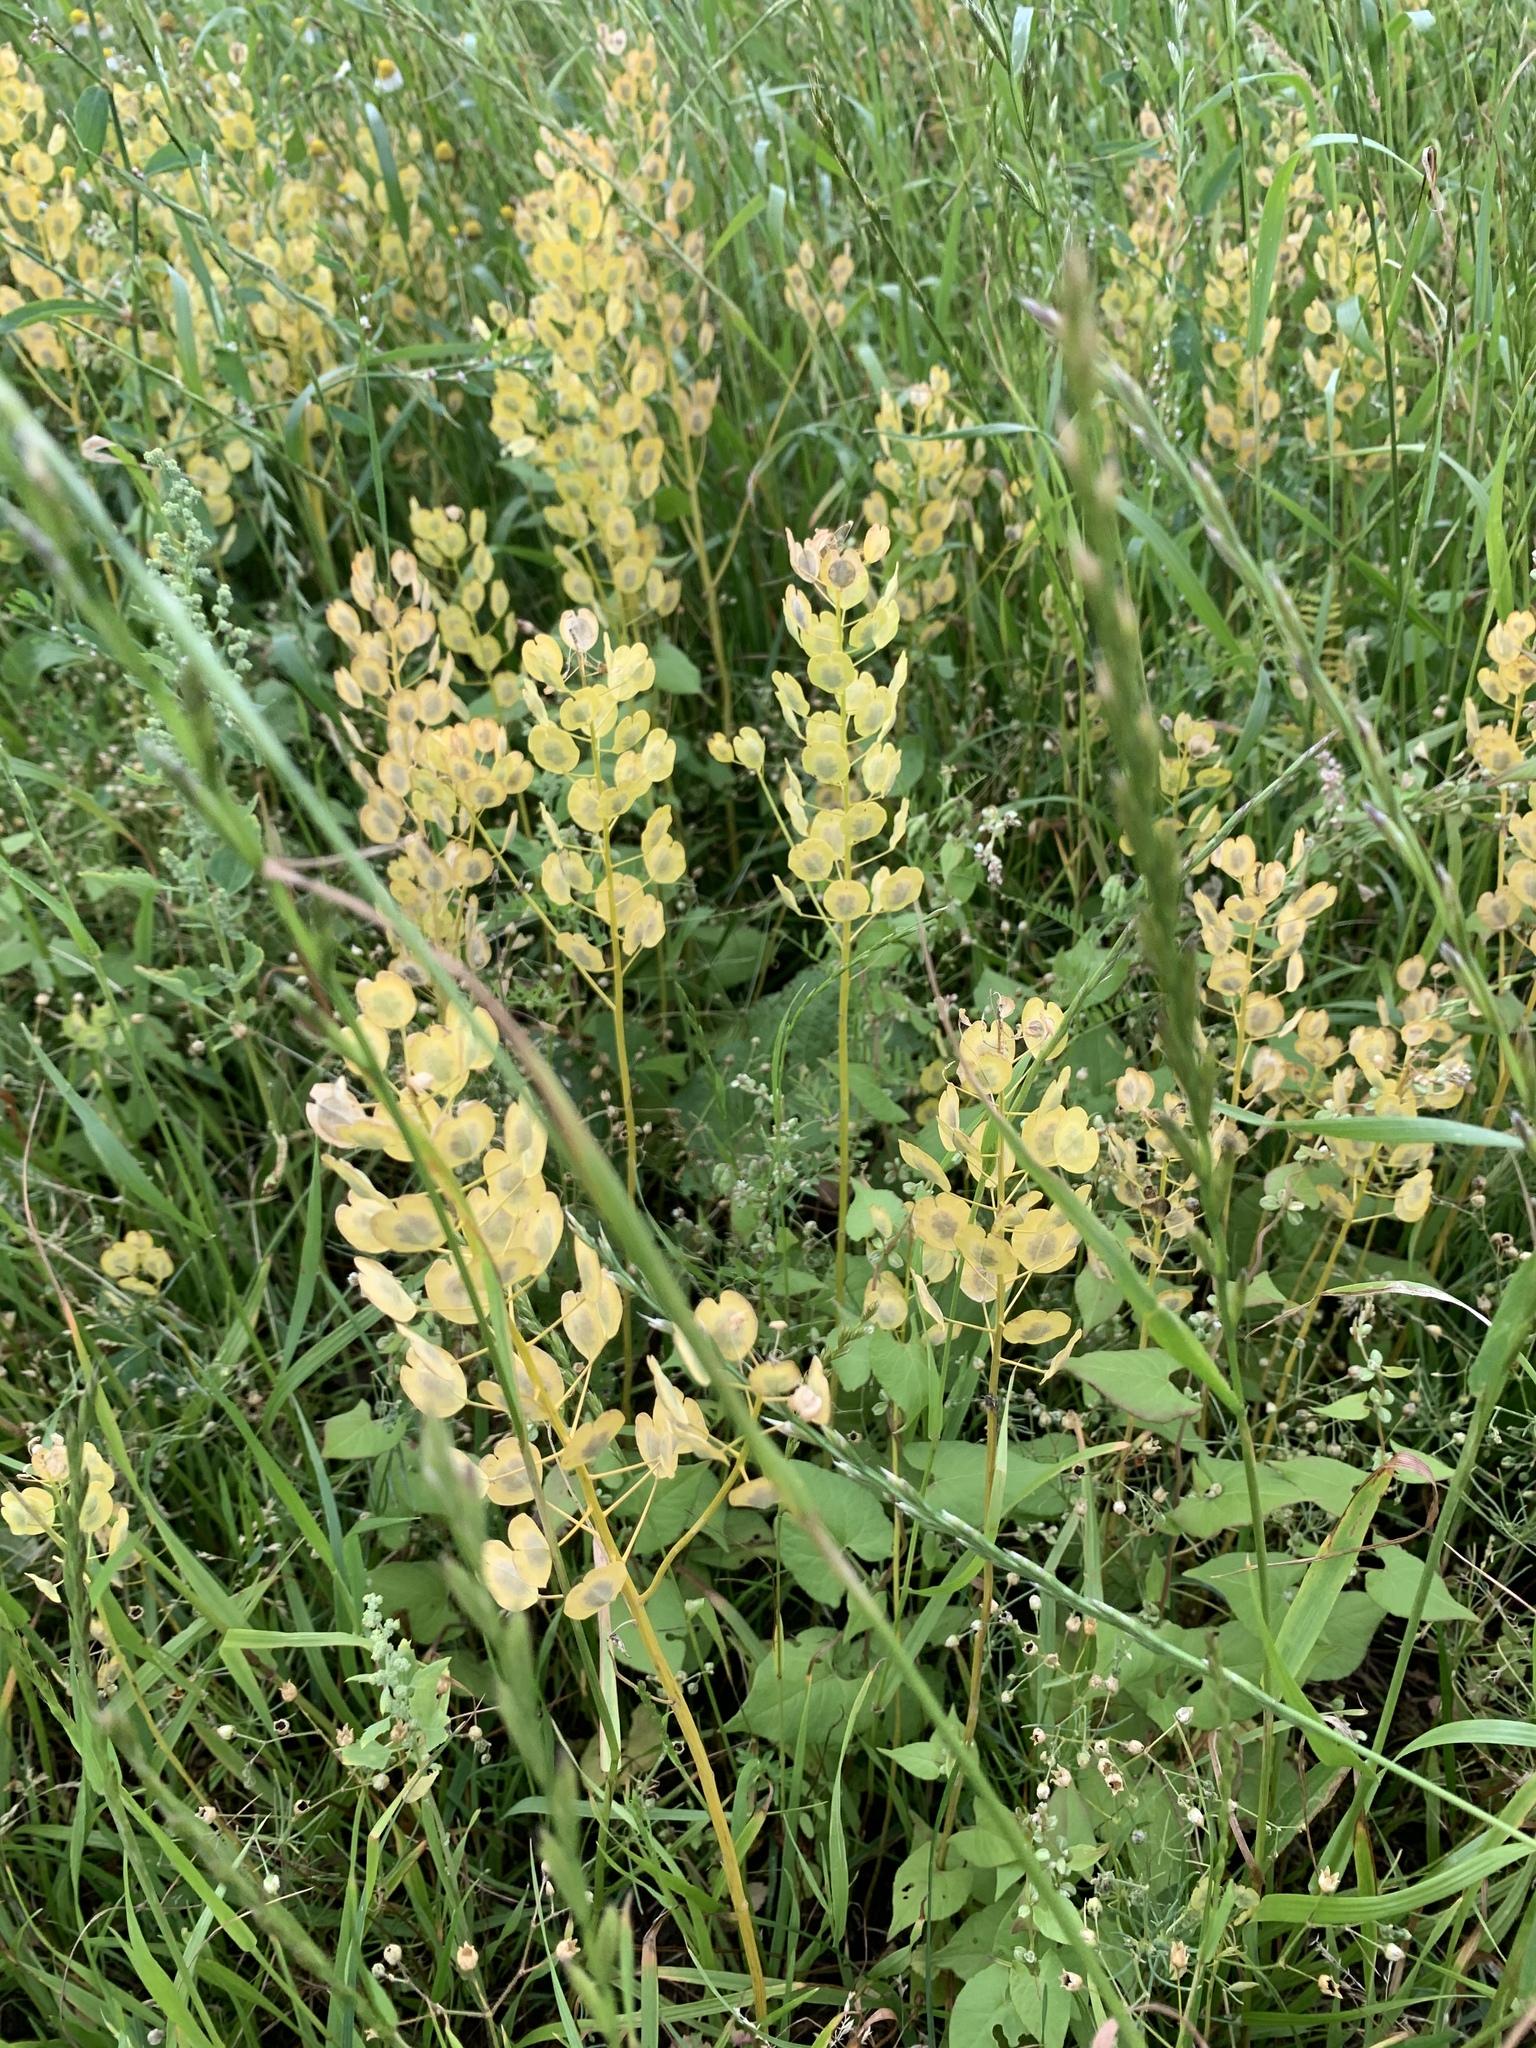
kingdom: Plantae
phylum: Tracheophyta
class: Magnoliopsida
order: Brassicales
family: Brassicaceae
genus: Thlaspi
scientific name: Thlaspi arvense
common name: Field pennycress
